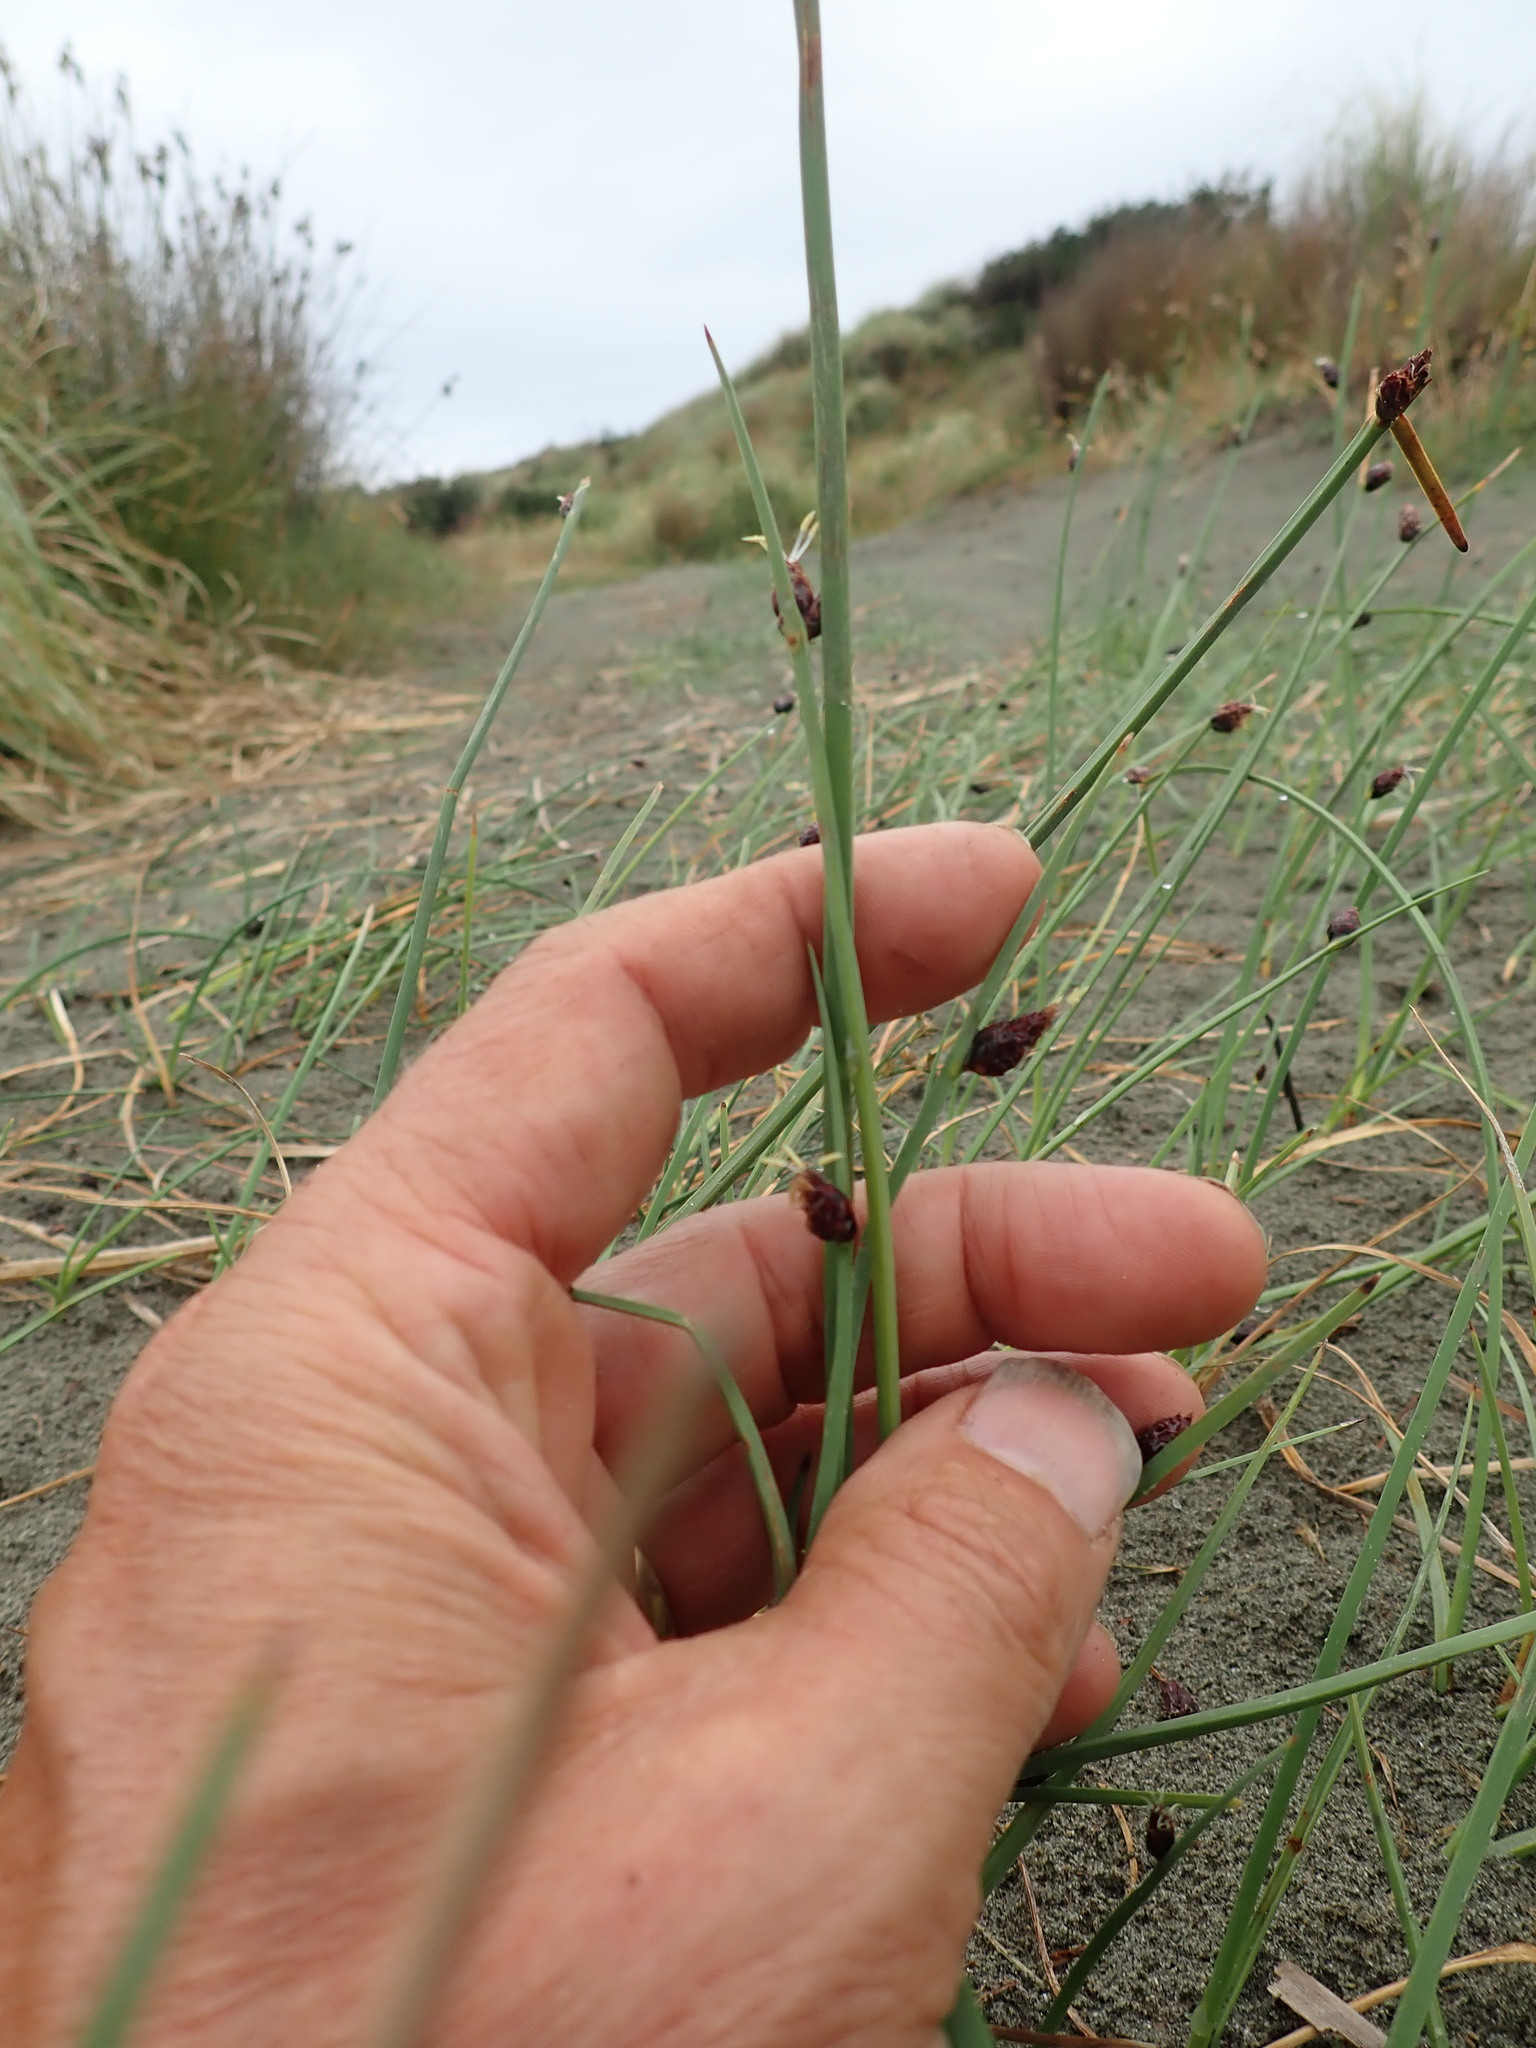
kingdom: Plantae
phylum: Tracheophyta
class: Liliopsida
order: Poales
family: Cyperaceae
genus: Schoenoplectus
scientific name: Schoenoplectus pungens
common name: Sharp club-rush
